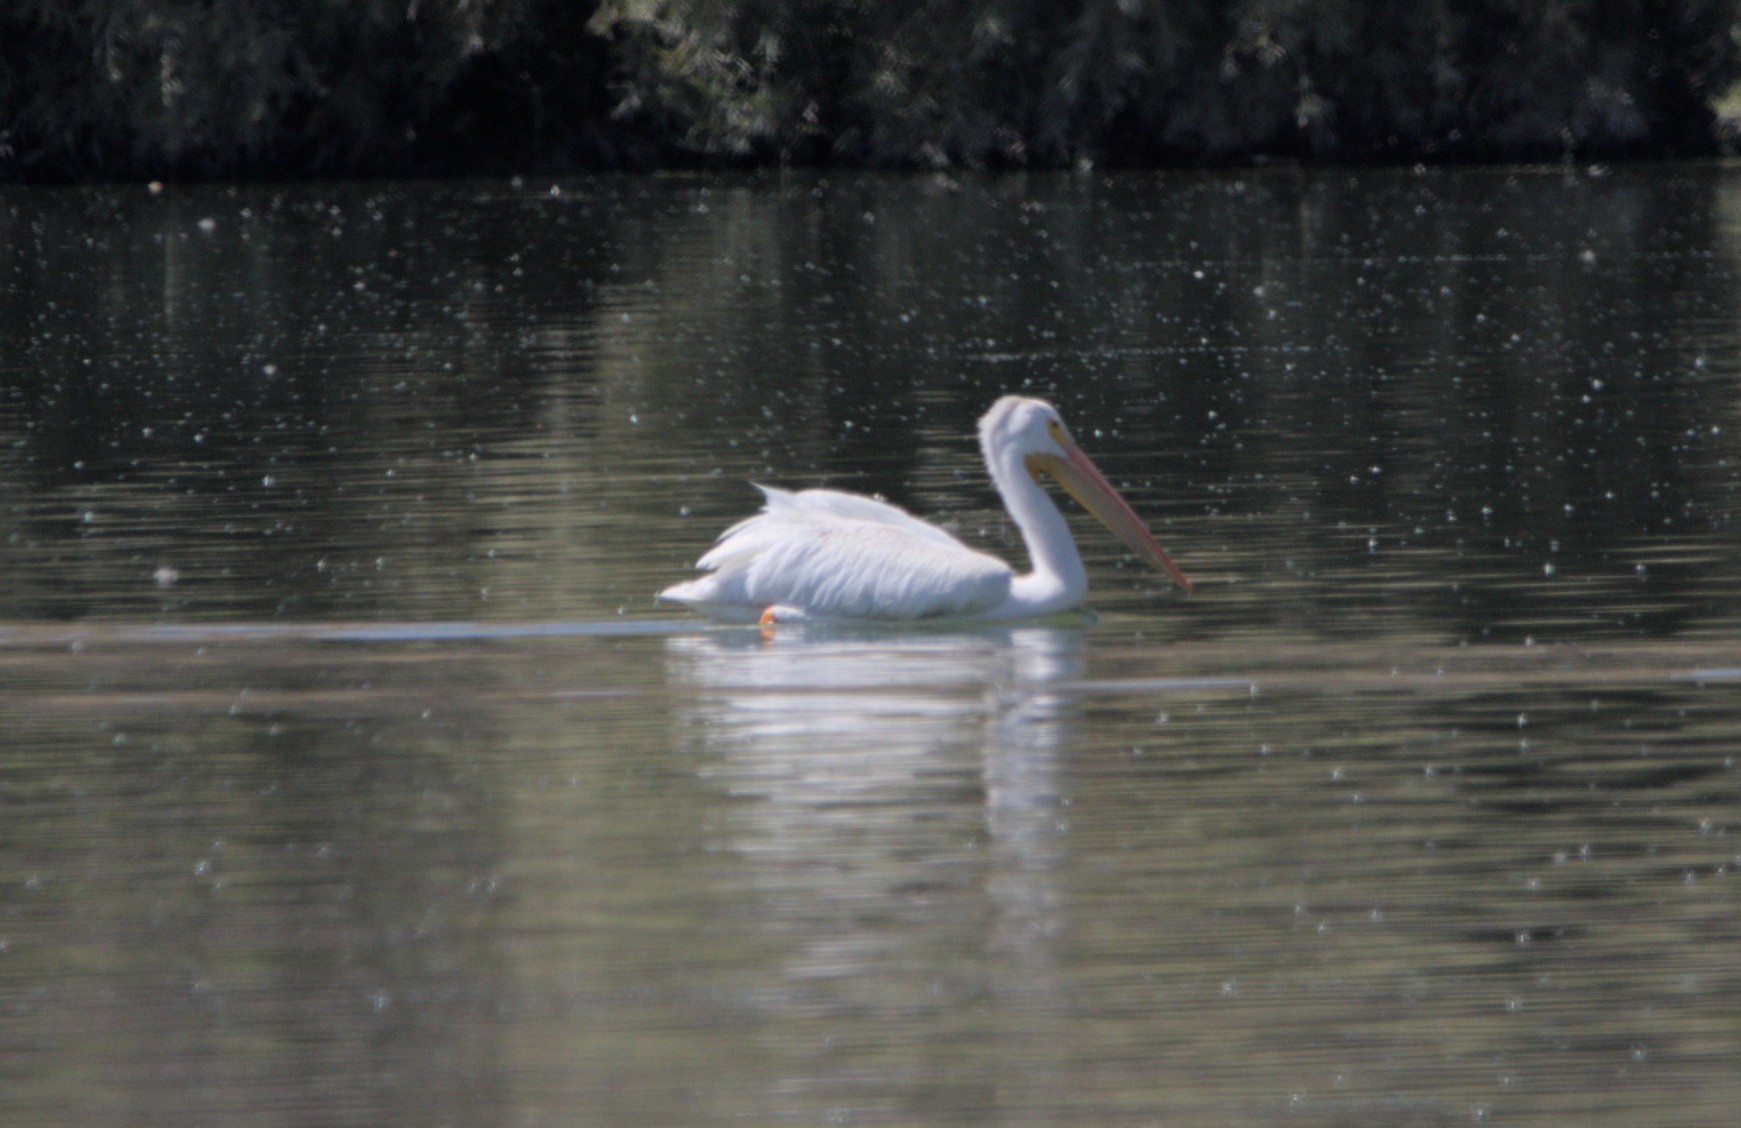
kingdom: Animalia
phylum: Chordata
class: Aves
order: Pelecaniformes
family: Pelecanidae
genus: Pelecanus
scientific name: Pelecanus erythrorhynchos
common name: American white pelican
